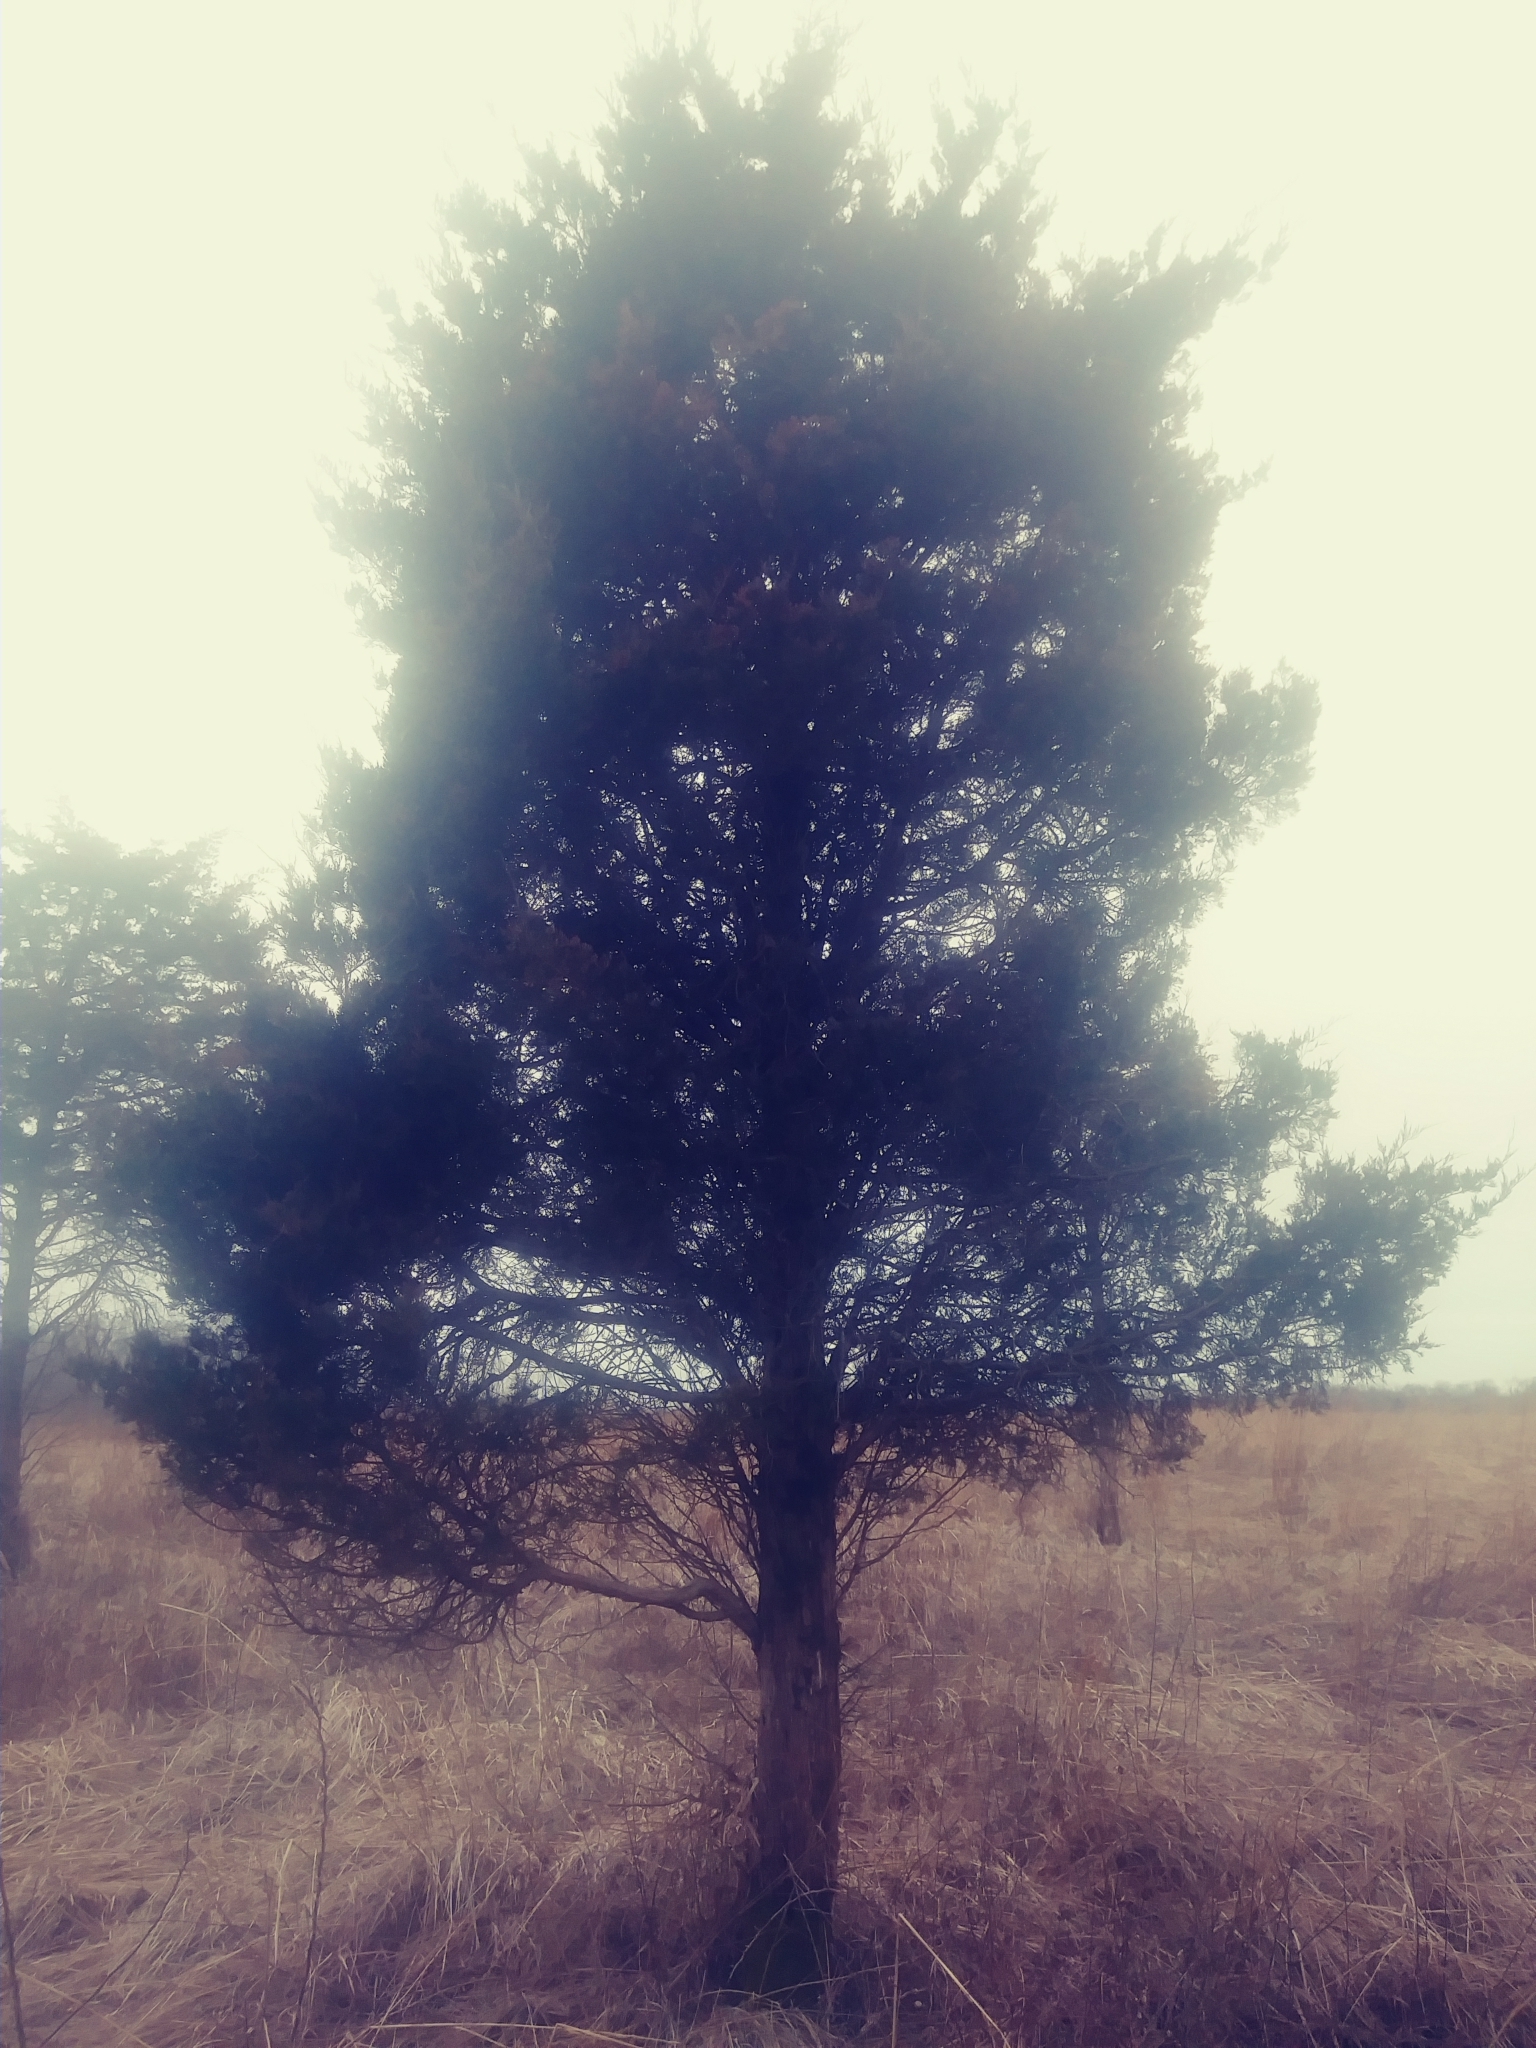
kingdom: Plantae
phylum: Tracheophyta
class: Pinopsida
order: Pinales
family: Cupressaceae
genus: Juniperus
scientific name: Juniperus virginiana
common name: Red juniper
